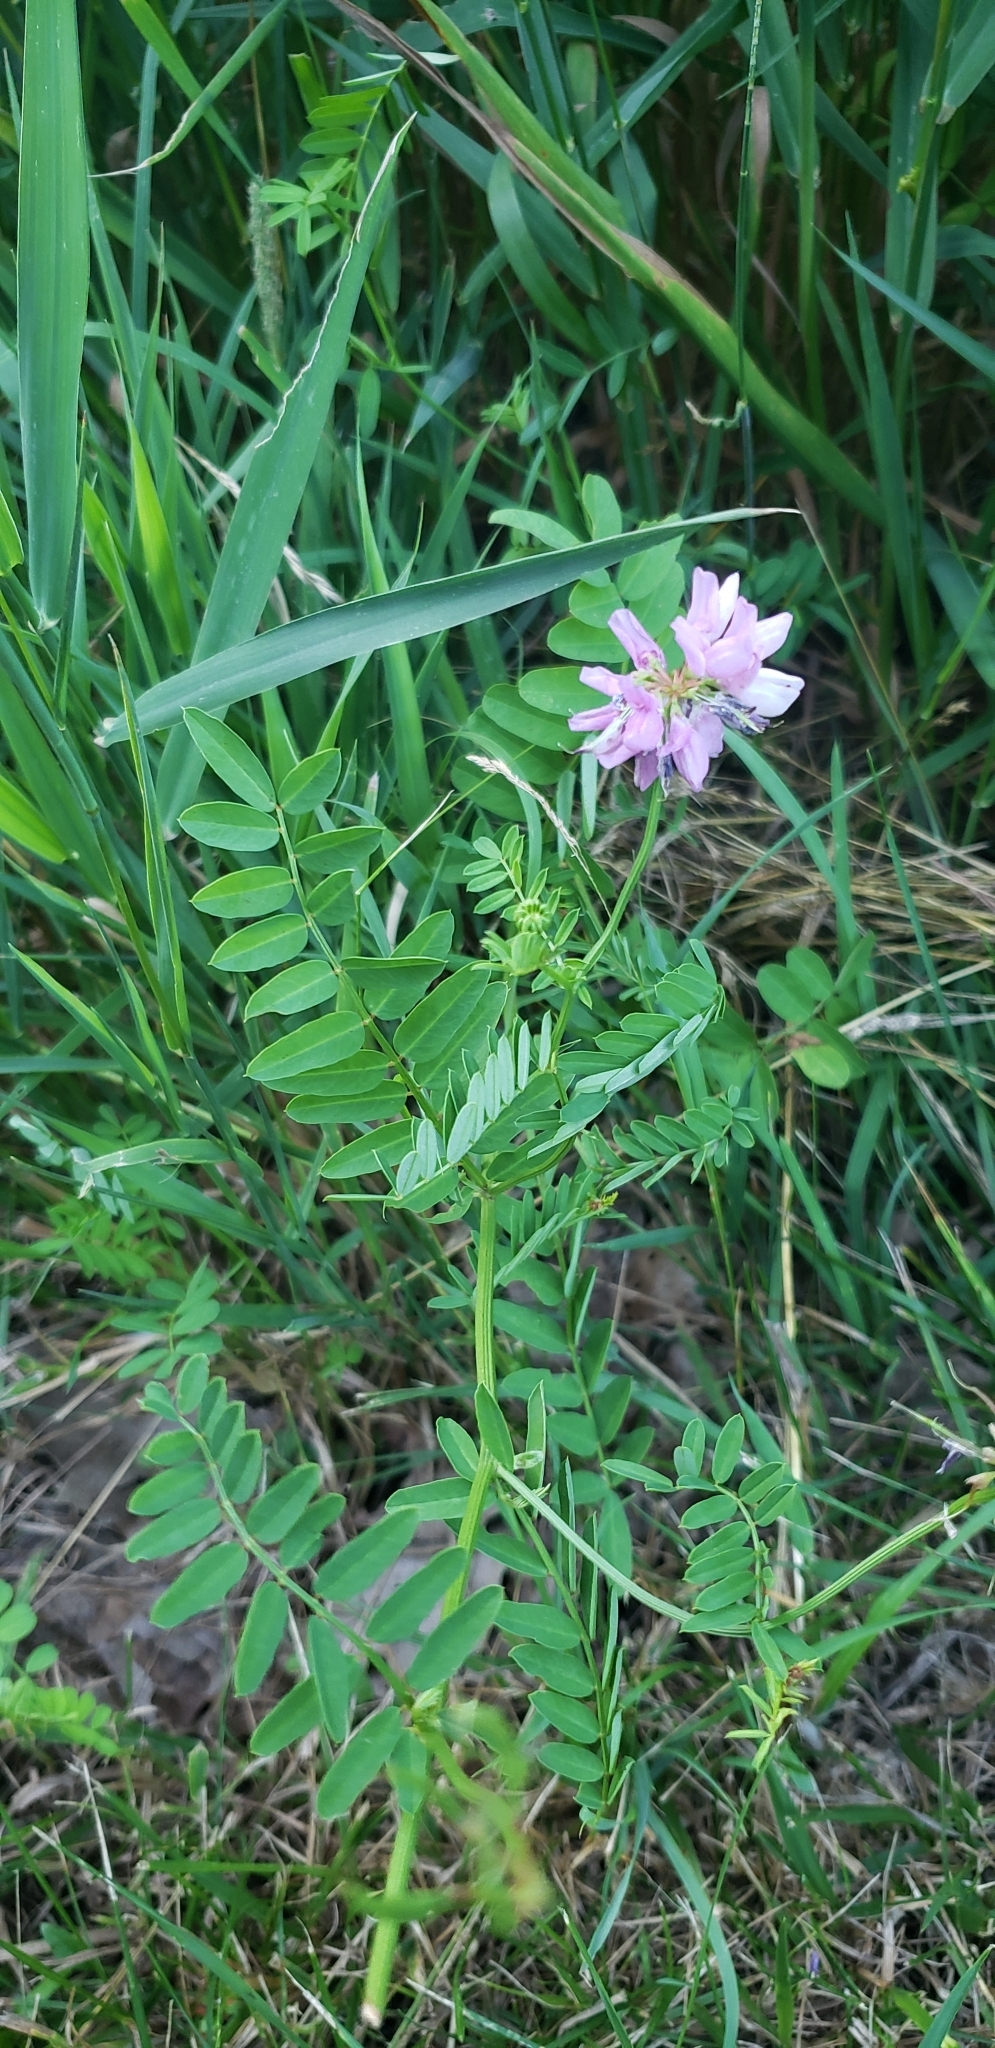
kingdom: Plantae
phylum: Tracheophyta
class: Magnoliopsida
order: Fabales
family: Fabaceae
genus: Coronilla
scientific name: Coronilla varia
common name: Crownvetch
